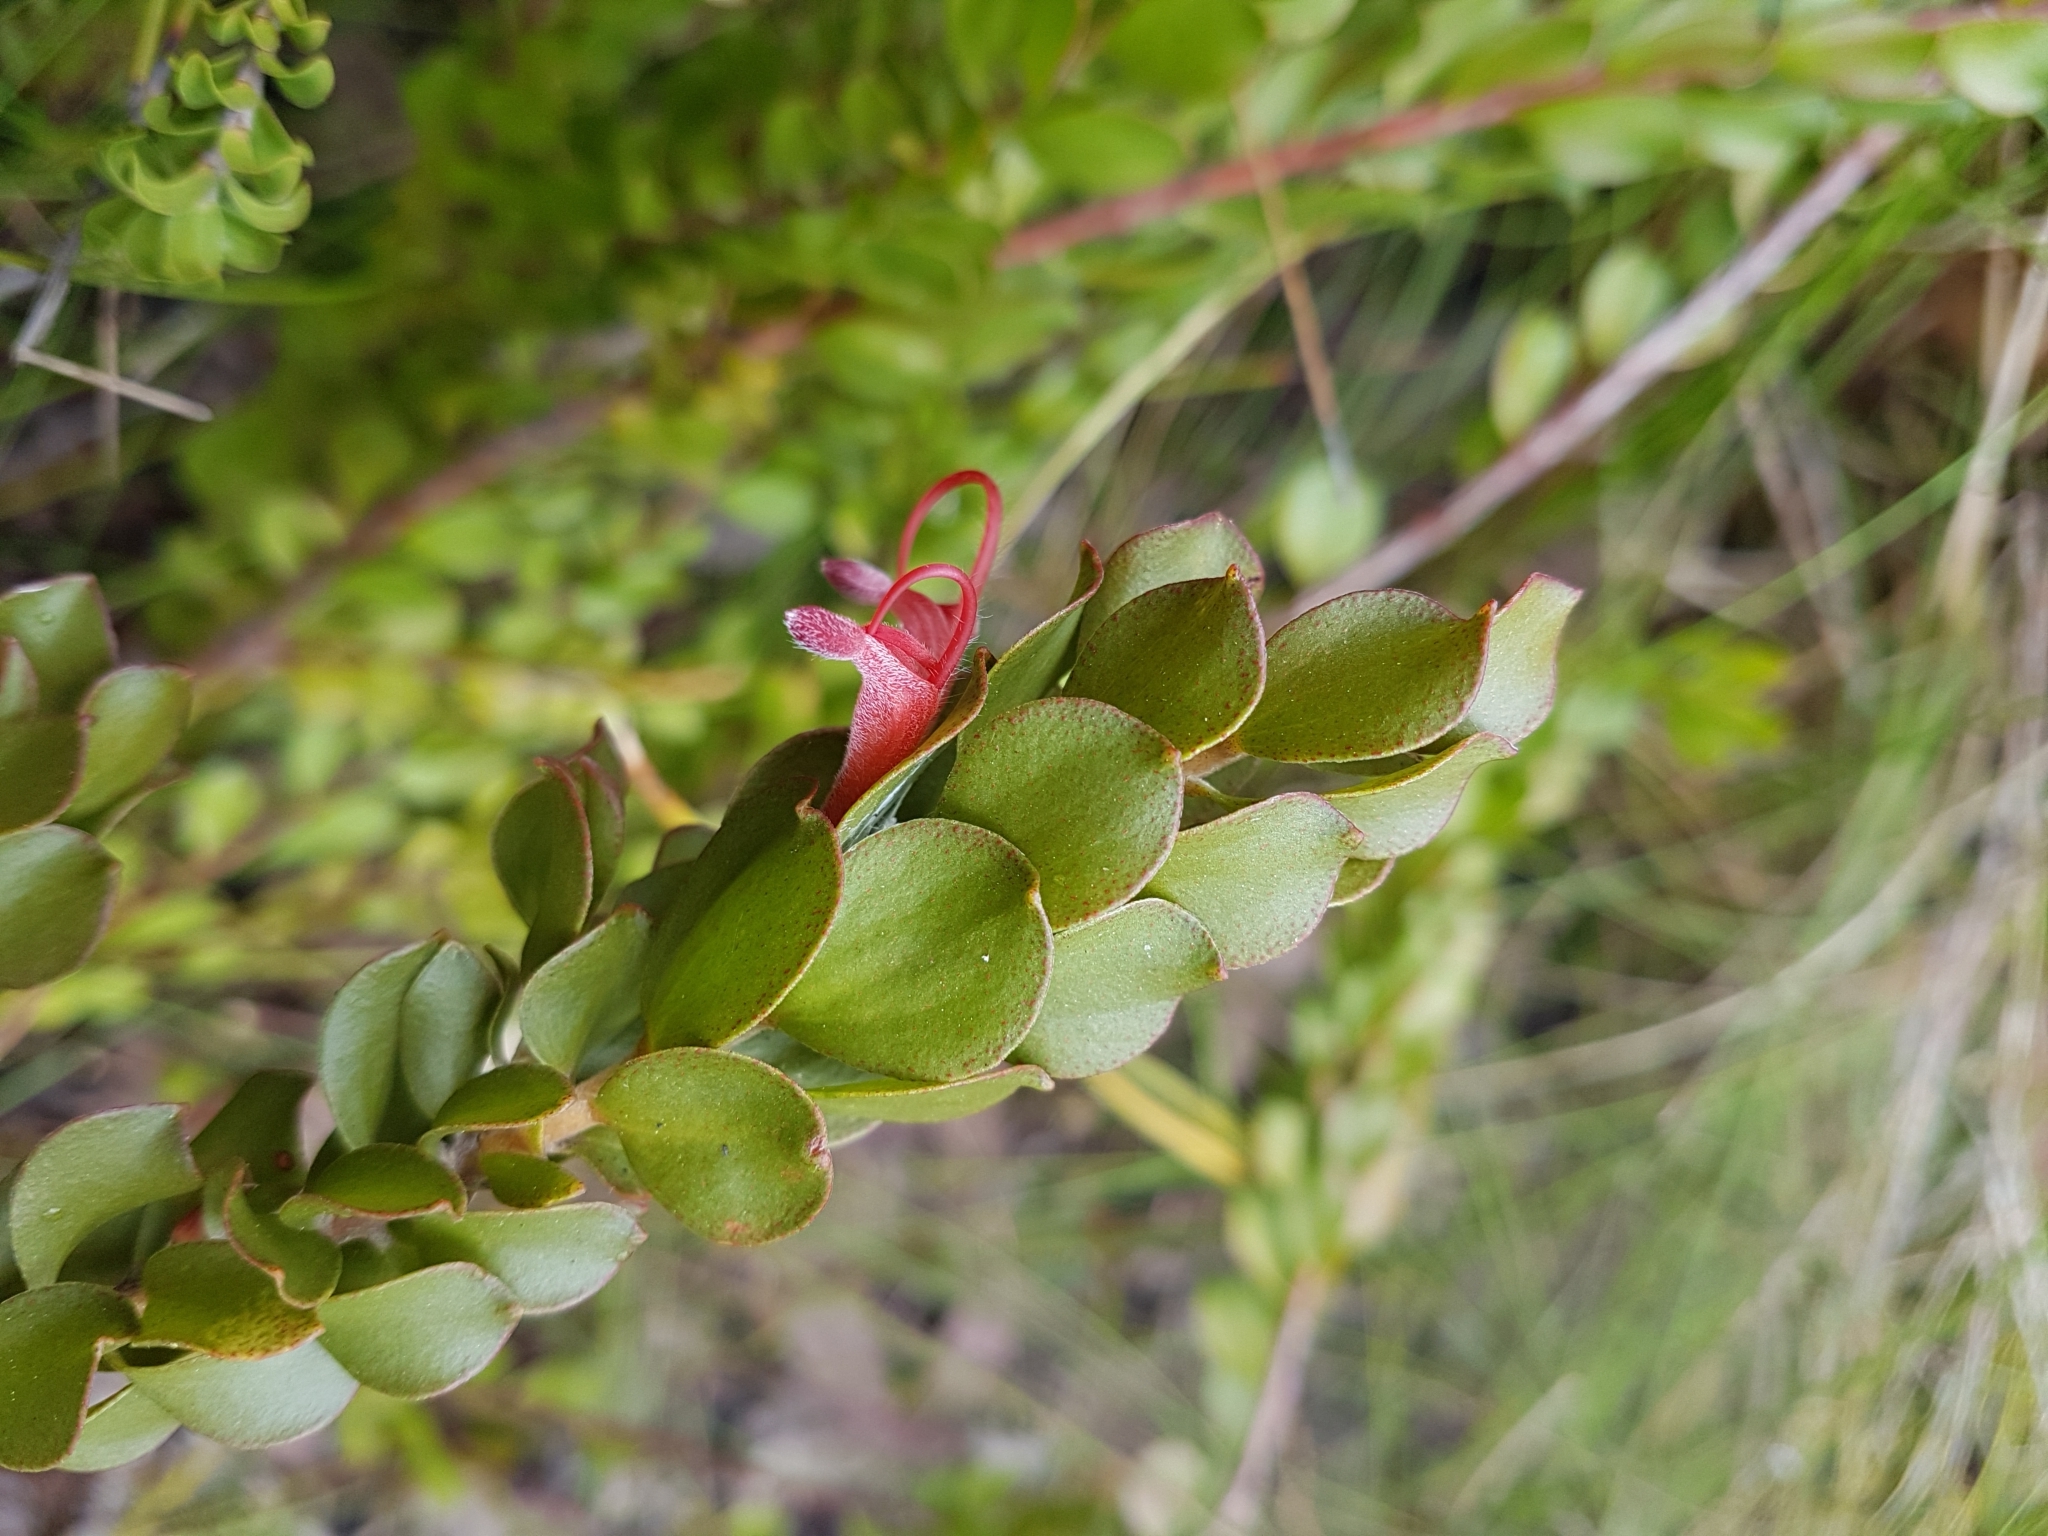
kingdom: Plantae
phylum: Tracheophyta
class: Magnoliopsida
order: Proteales
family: Proteaceae
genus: Adenanthos
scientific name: Adenanthos obovatus
